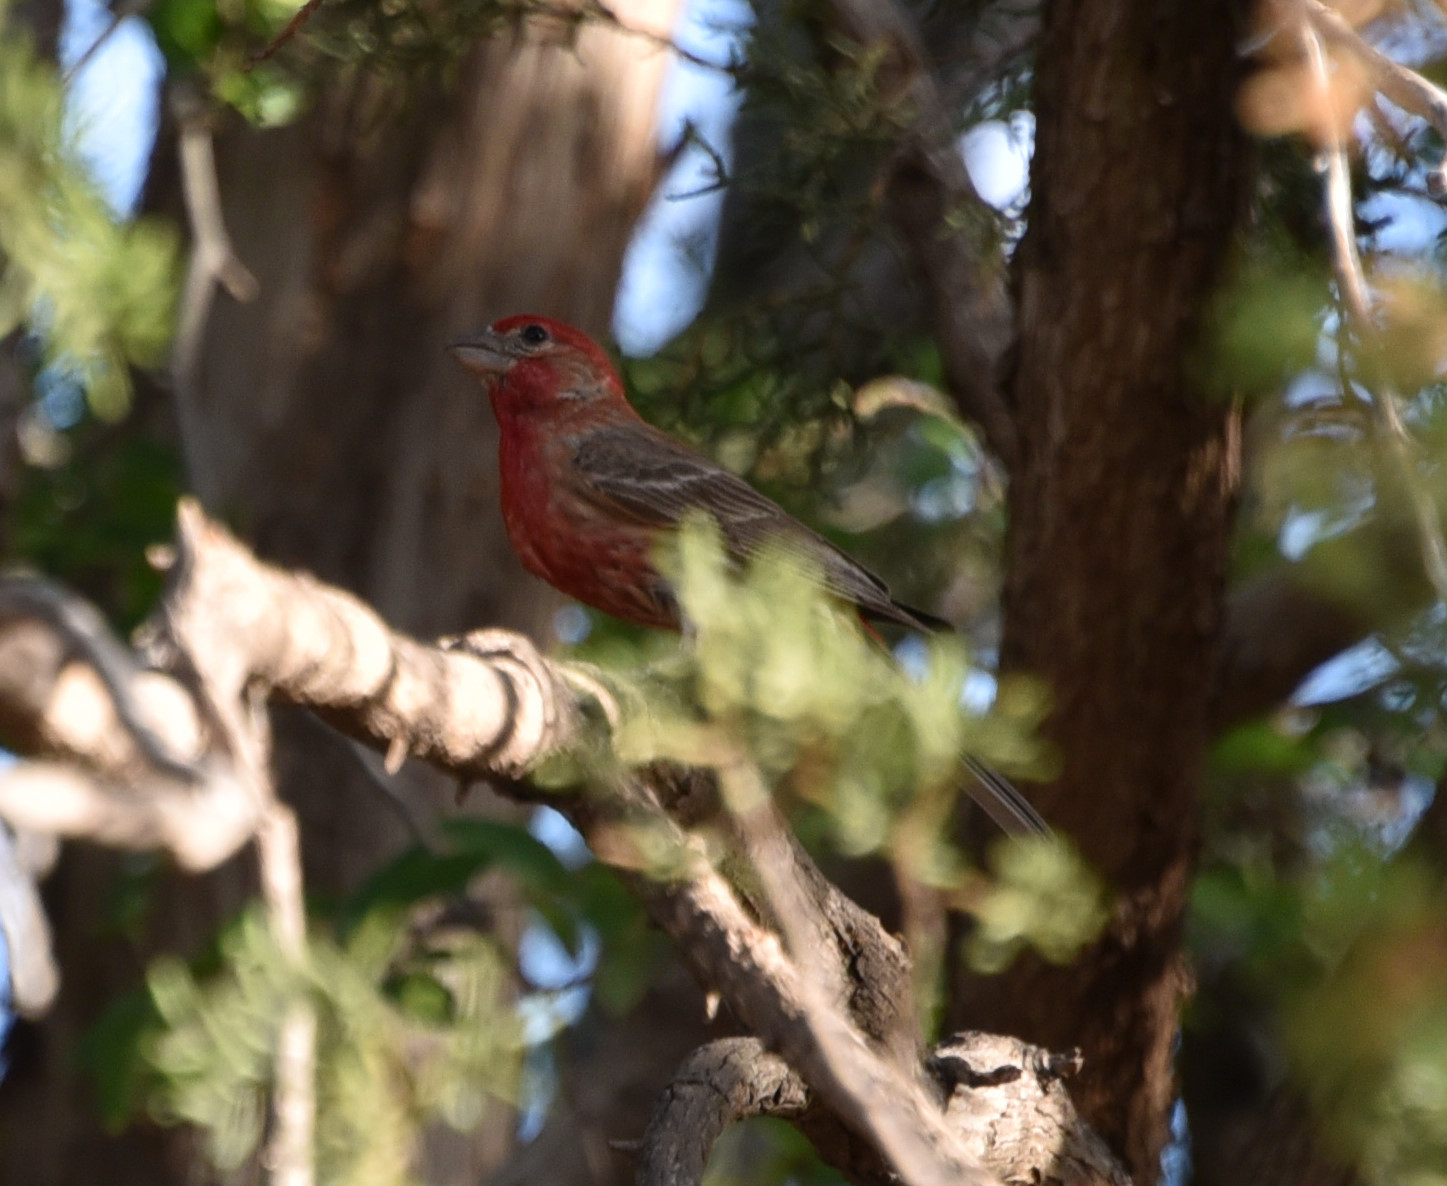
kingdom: Animalia
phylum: Chordata
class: Aves
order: Passeriformes
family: Fringillidae
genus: Haemorhous
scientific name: Haemorhous mexicanus
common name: House finch
